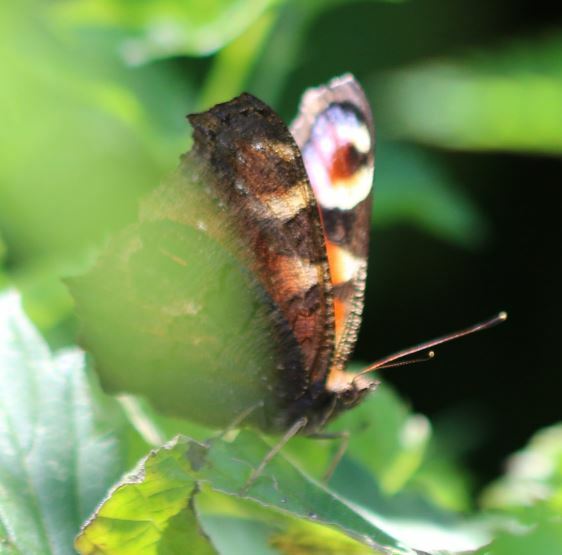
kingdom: Animalia
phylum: Arthropoda
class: Insecta
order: Lepidoptera
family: Nymphalidae
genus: Aglais
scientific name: Aglais io
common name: Peacock
